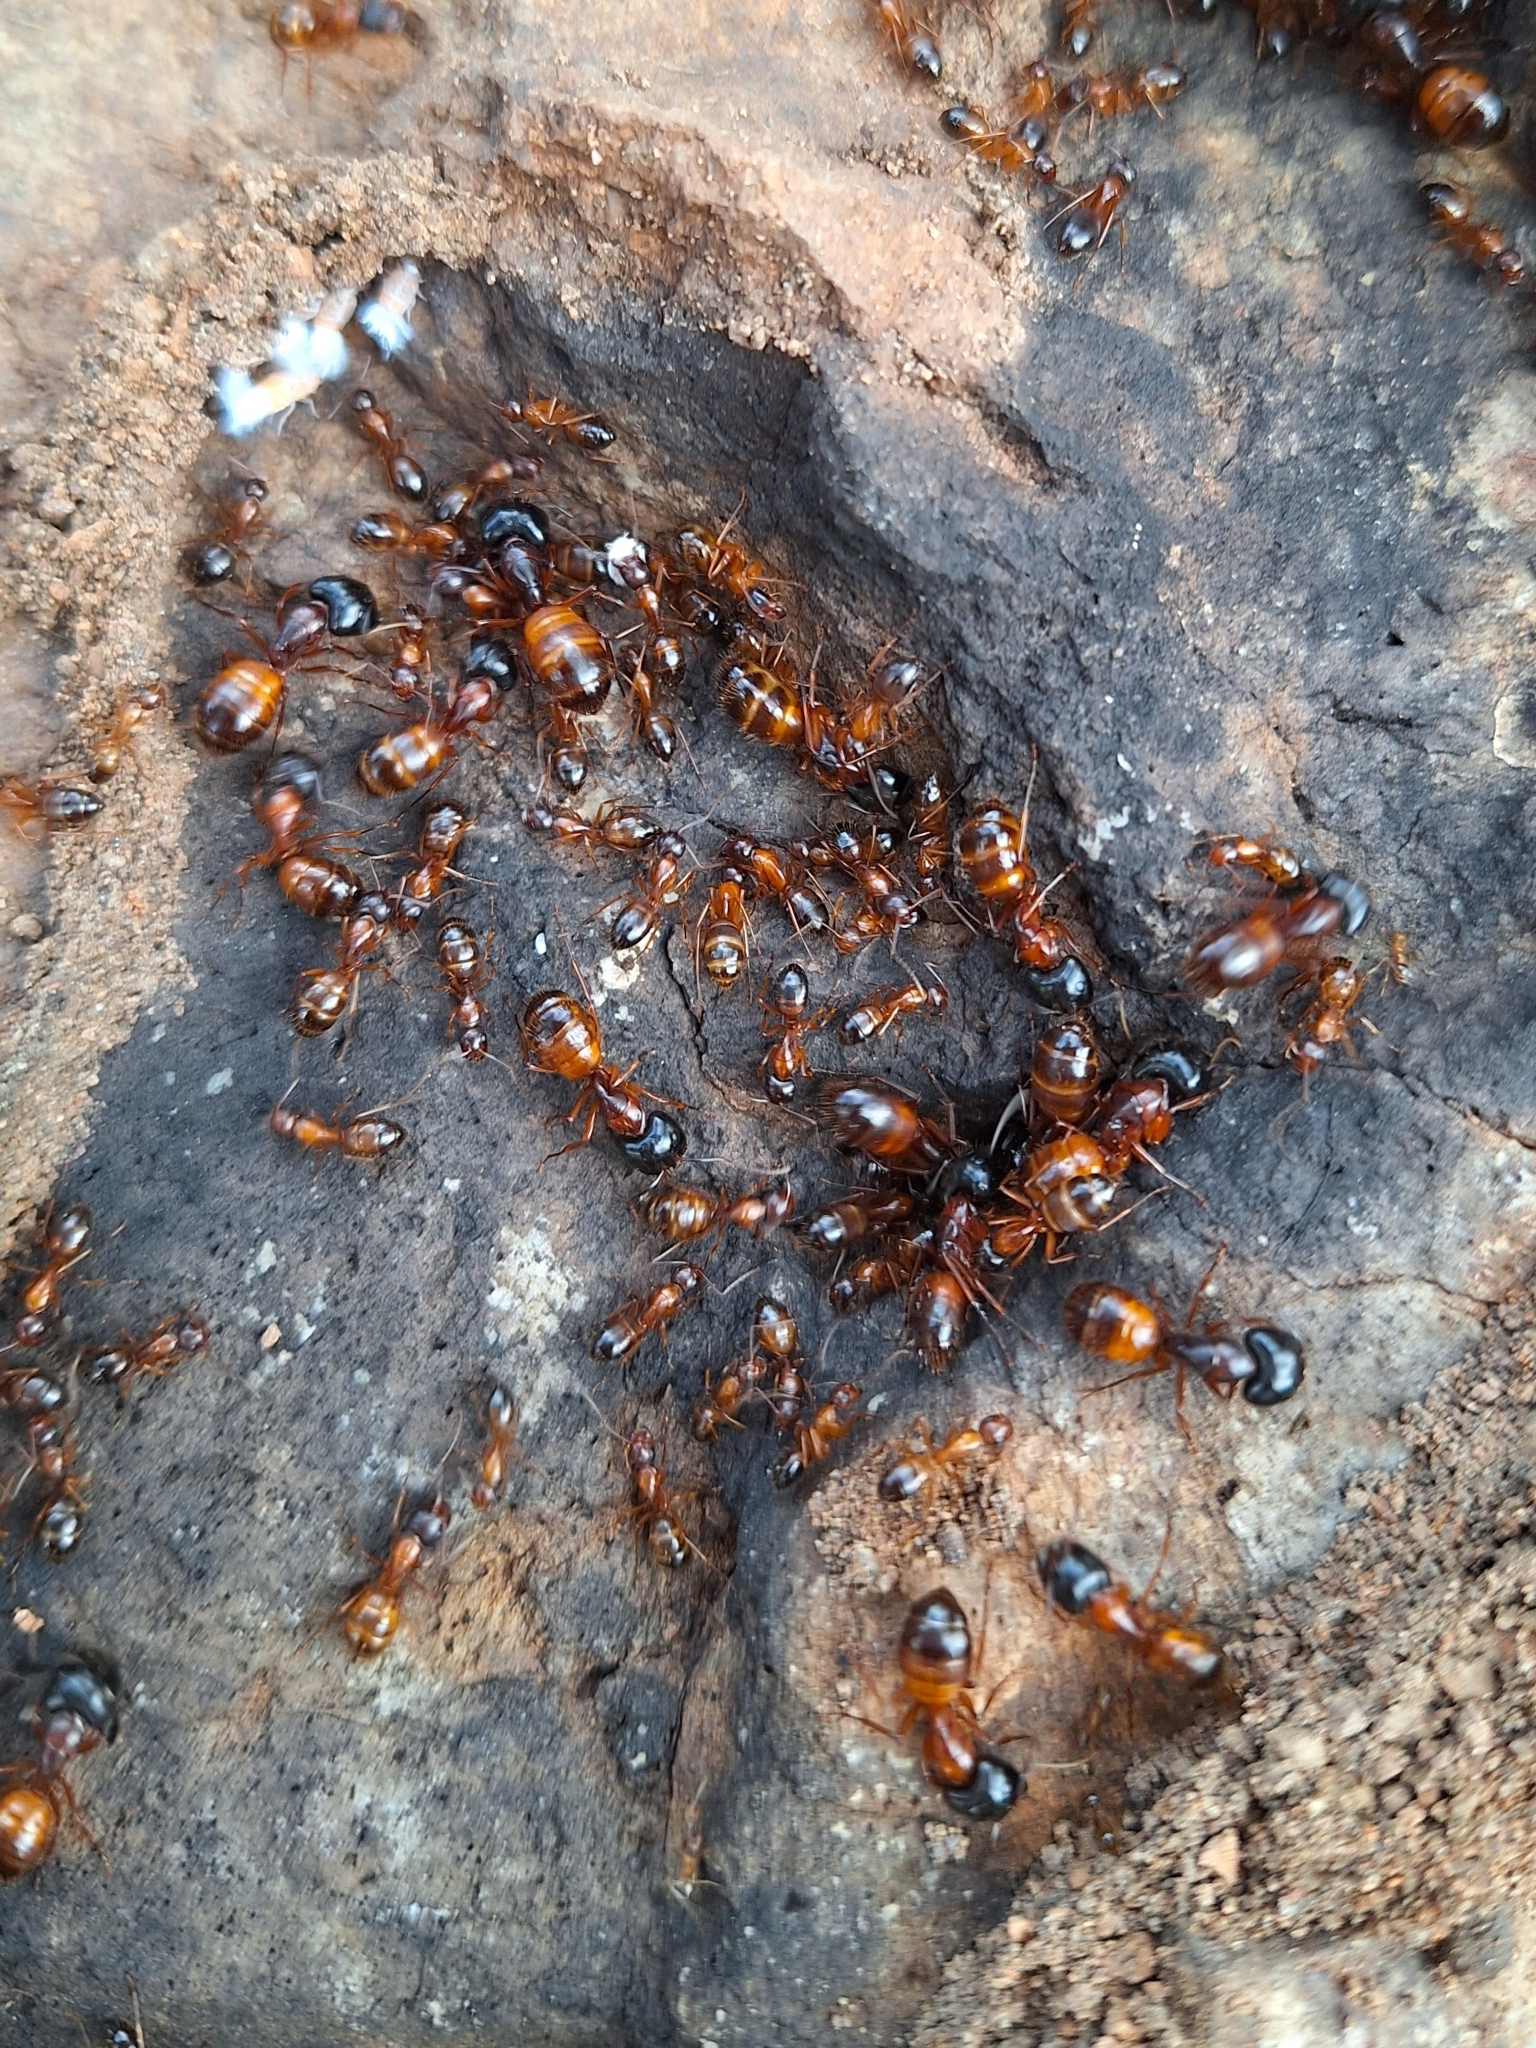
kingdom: Animalia
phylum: Arthropoda
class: Insecta
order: Hymenoptera
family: Formicidae
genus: Camponotus
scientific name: Camponotus sansabeanus
